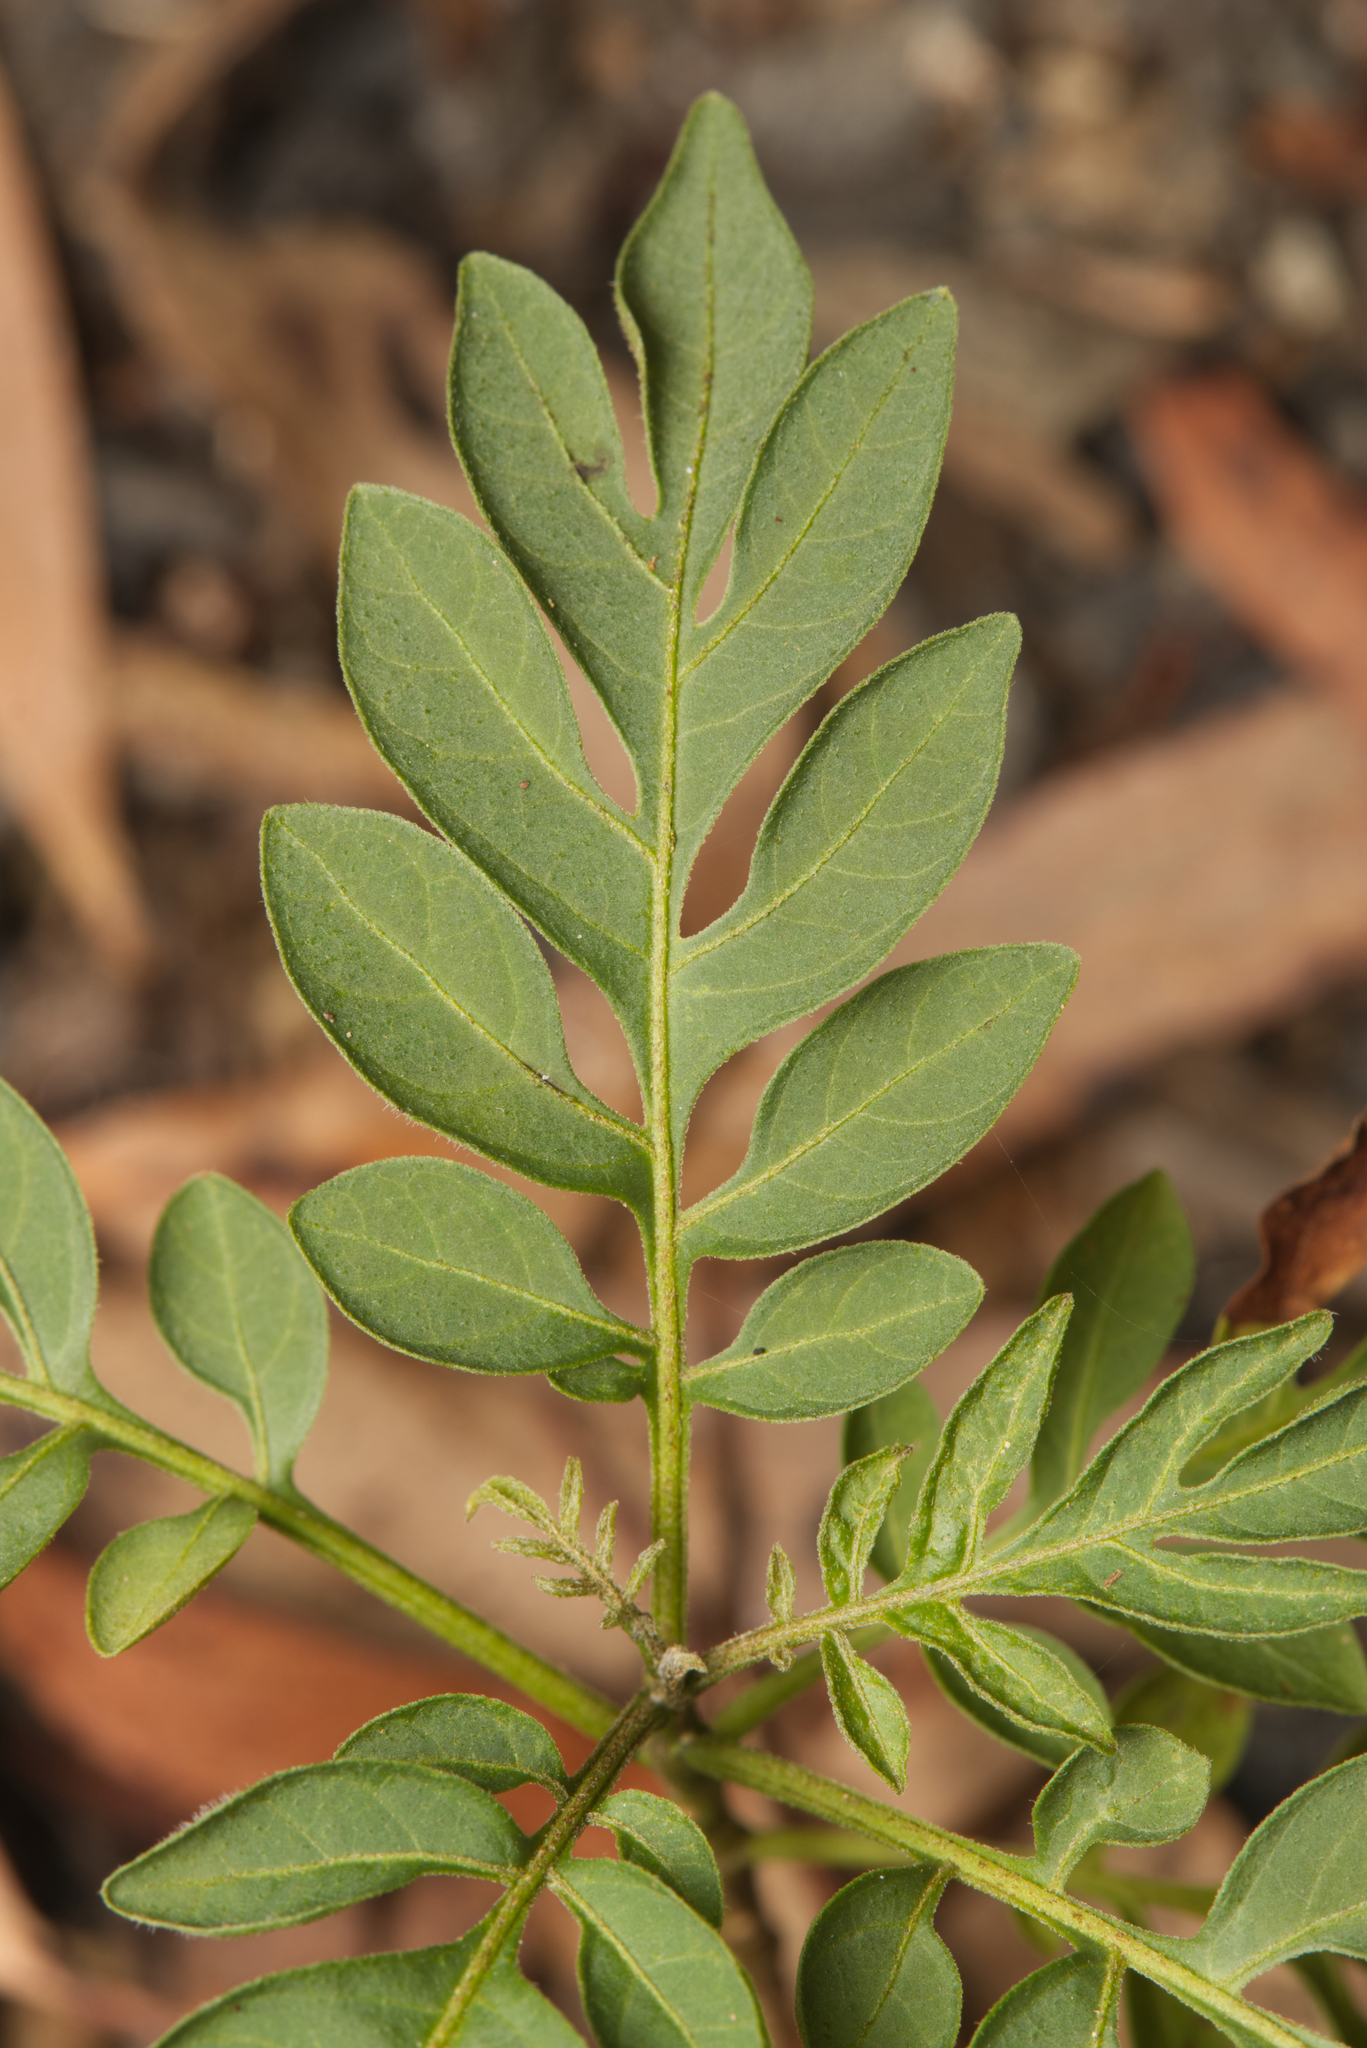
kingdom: Plantae
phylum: Tracheophyta
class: Magnoliopsida
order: Solanales
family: Solanaceae
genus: Solanum
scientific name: Solanum seaforthianum
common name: Brazilian nightshade
